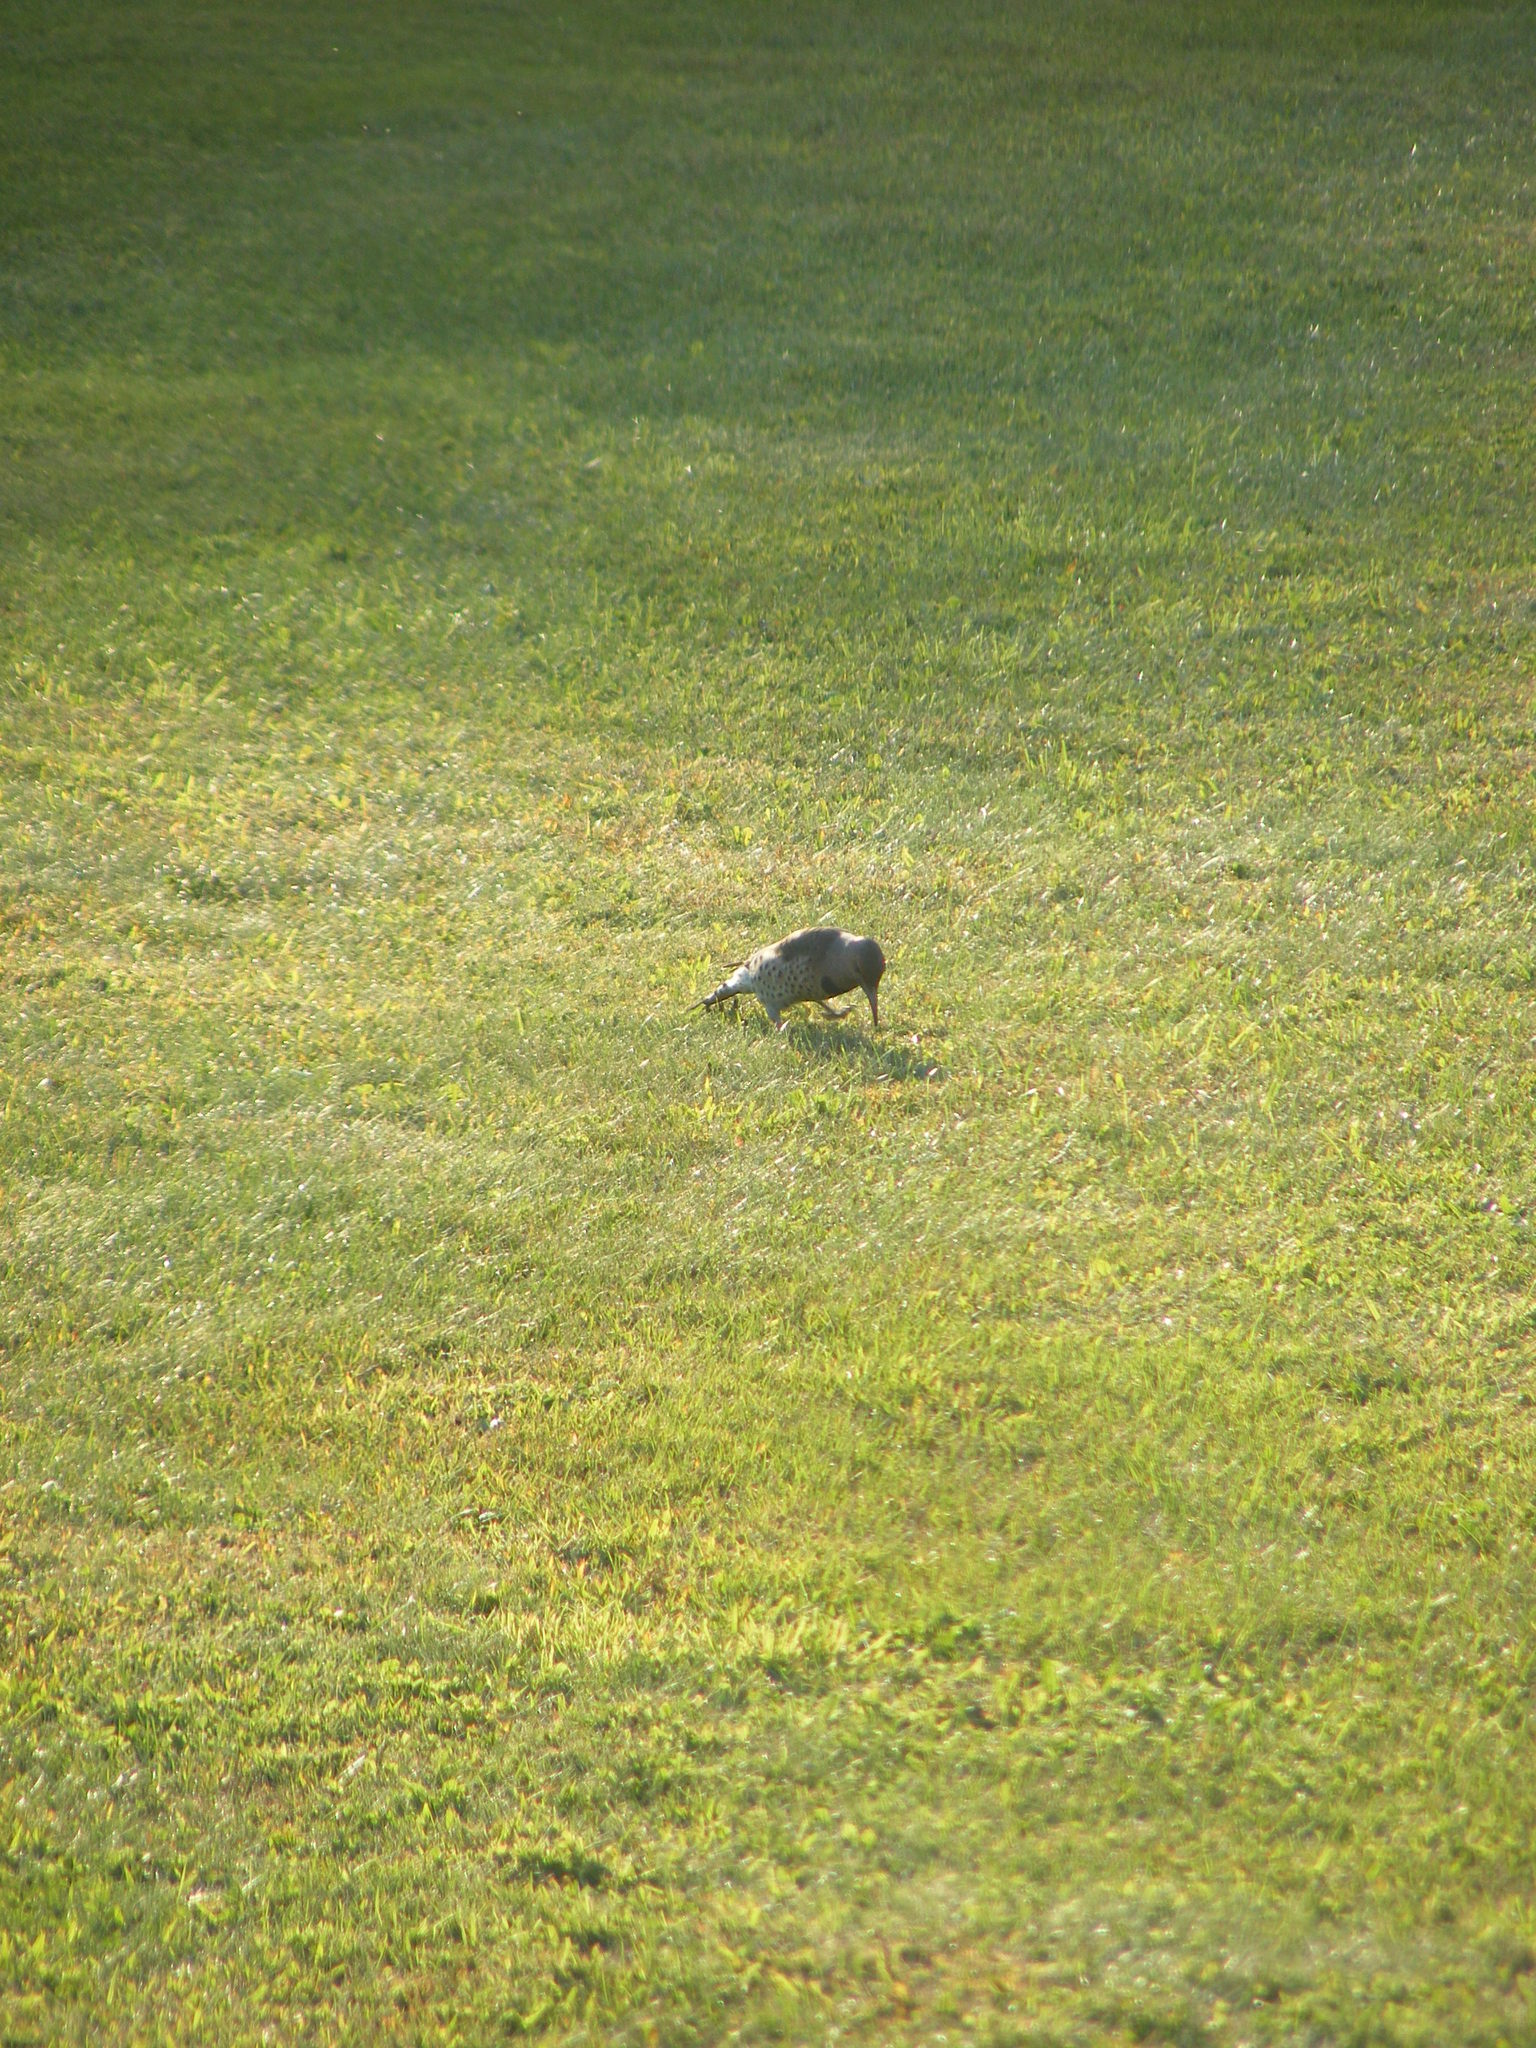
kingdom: Animalia
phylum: Chordata
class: Aves
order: Piciformes
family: Picidae
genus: Colaptes
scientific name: Colaptes auratus
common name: Northern flicker
